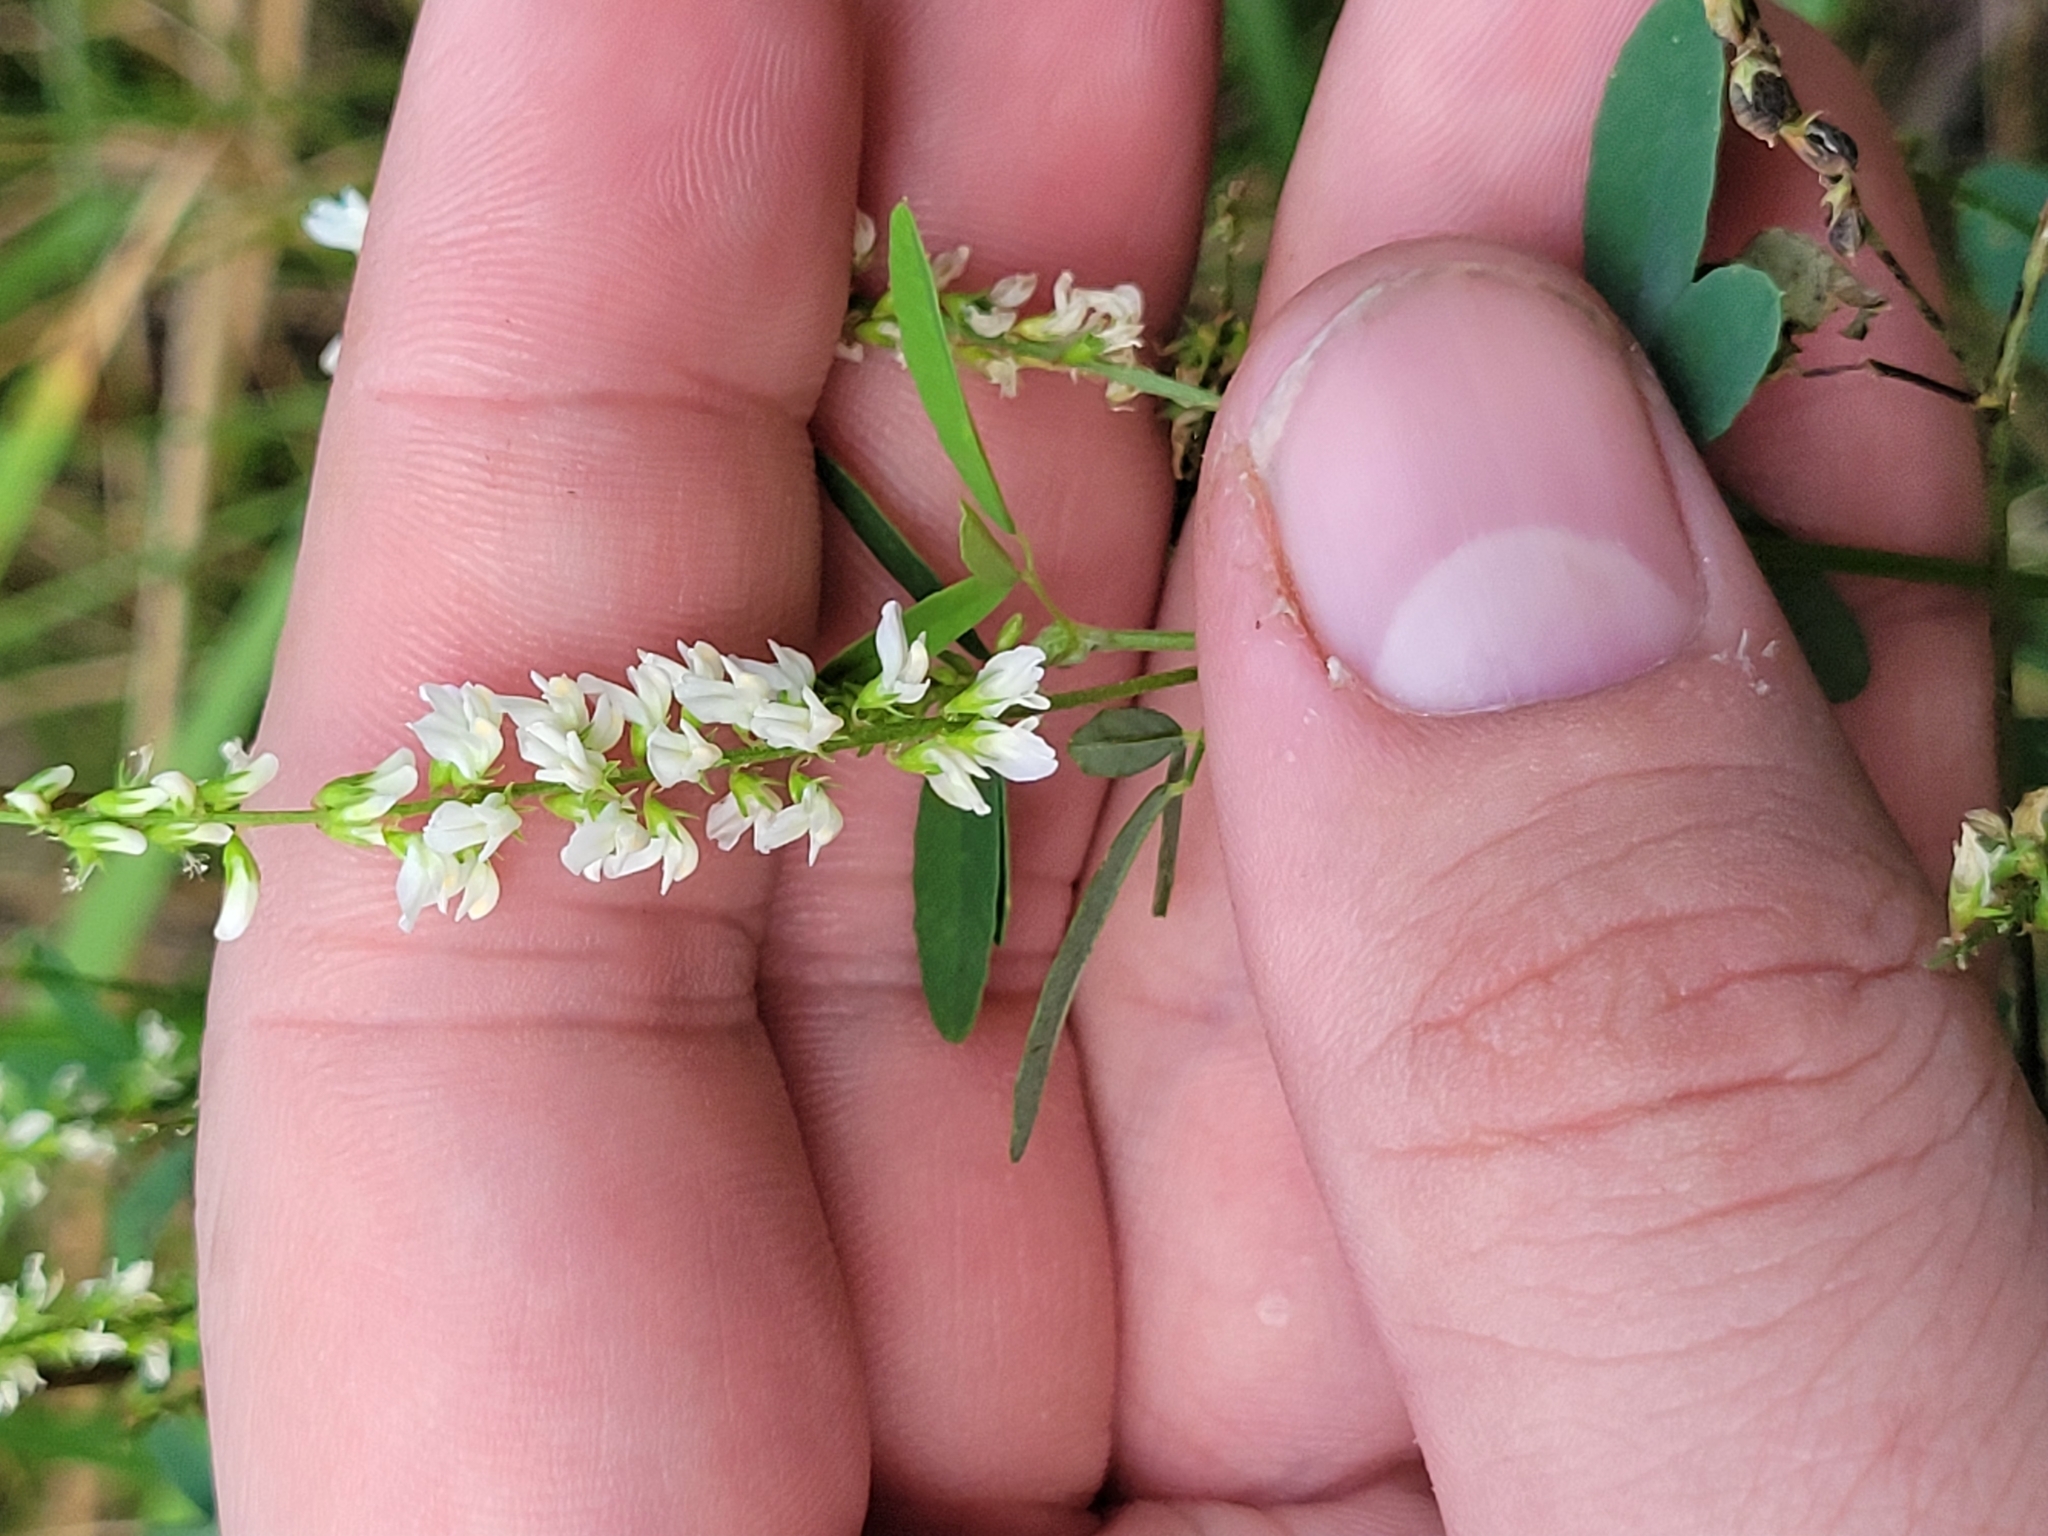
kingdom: Plantae
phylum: Tracheophyta
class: Magnoliopsida
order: Fabales
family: Fabaceae
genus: Melilotus
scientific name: Melilotus albus
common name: White melilot
